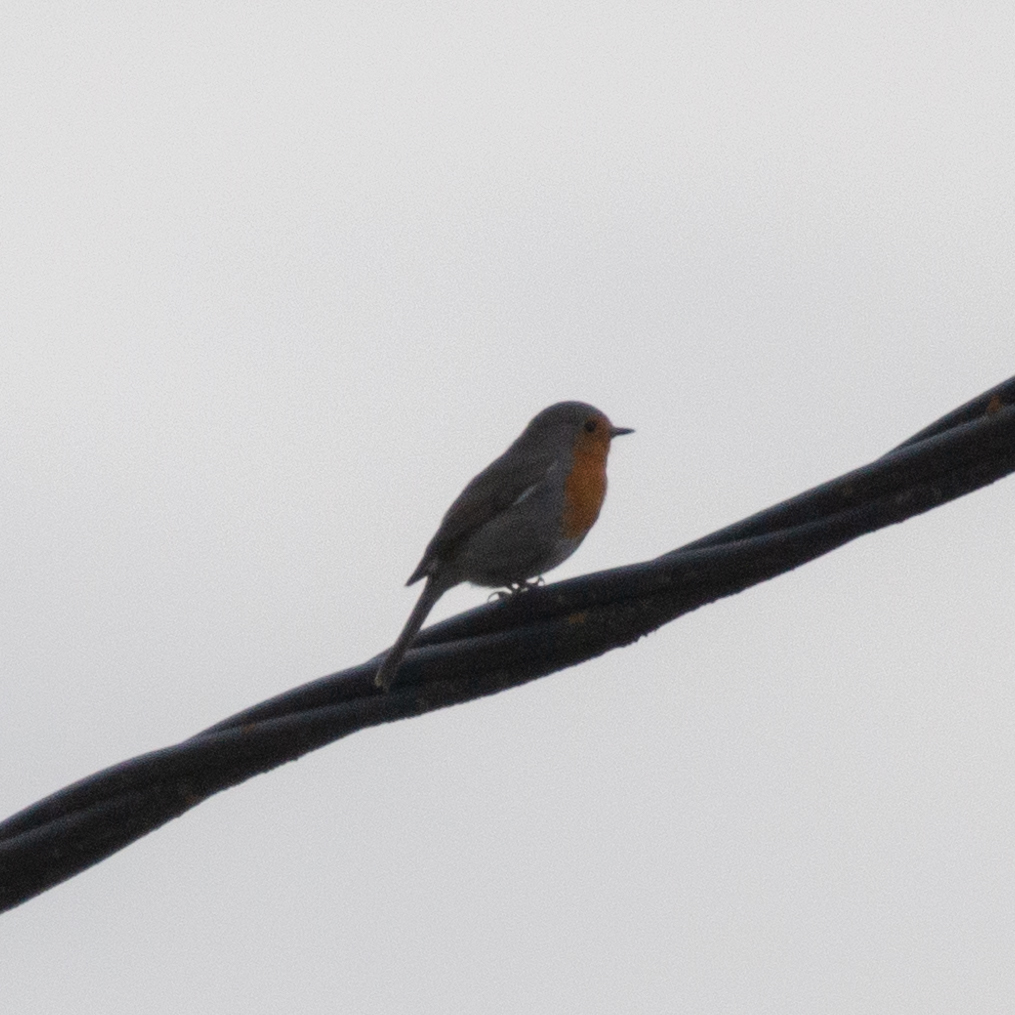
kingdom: Animalia
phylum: Chordata
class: Aves
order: Passeriformes
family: Muscicapidae
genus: Erithacus
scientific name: Erithacus rubecula
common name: European robin
